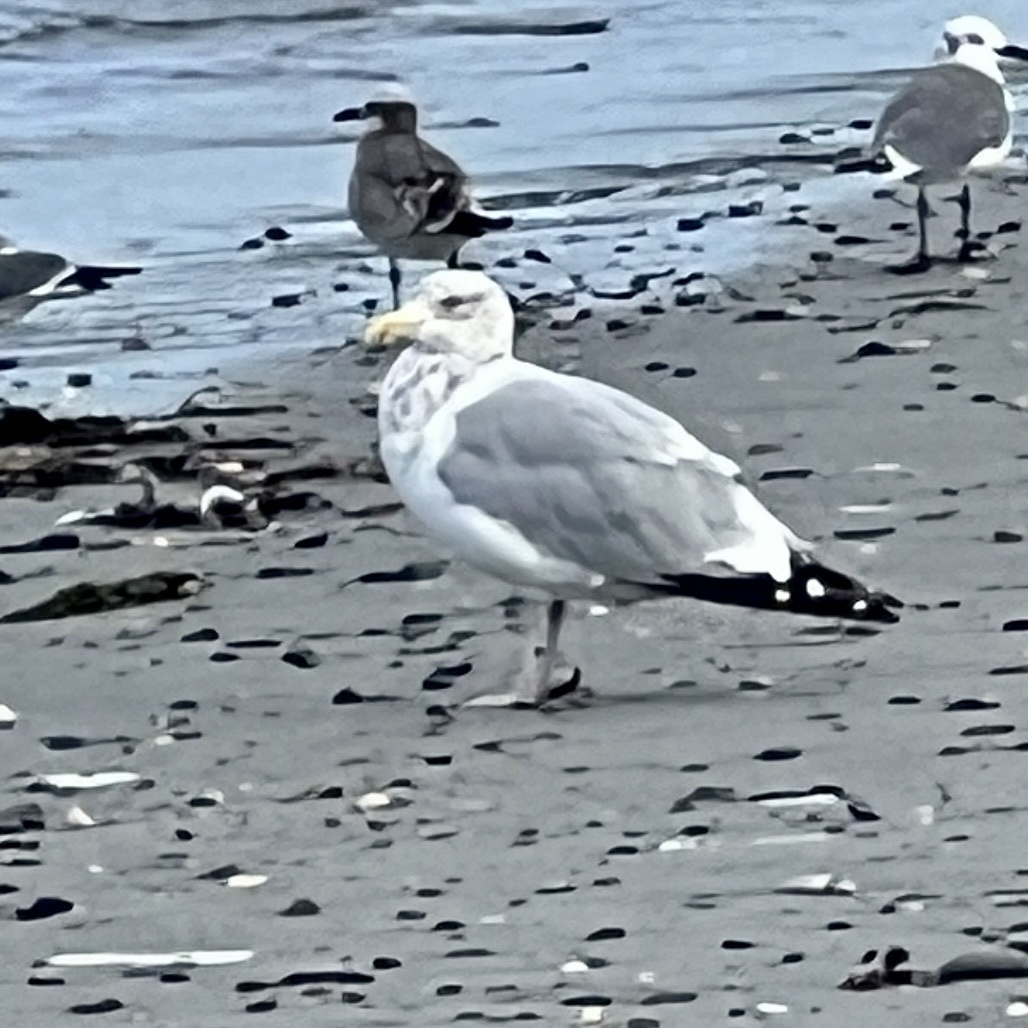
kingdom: Animalia
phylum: Chordata
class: Aves
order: Charadriiformes
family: Laridae
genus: Larus
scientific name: Larus argentatus
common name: Herring gull
